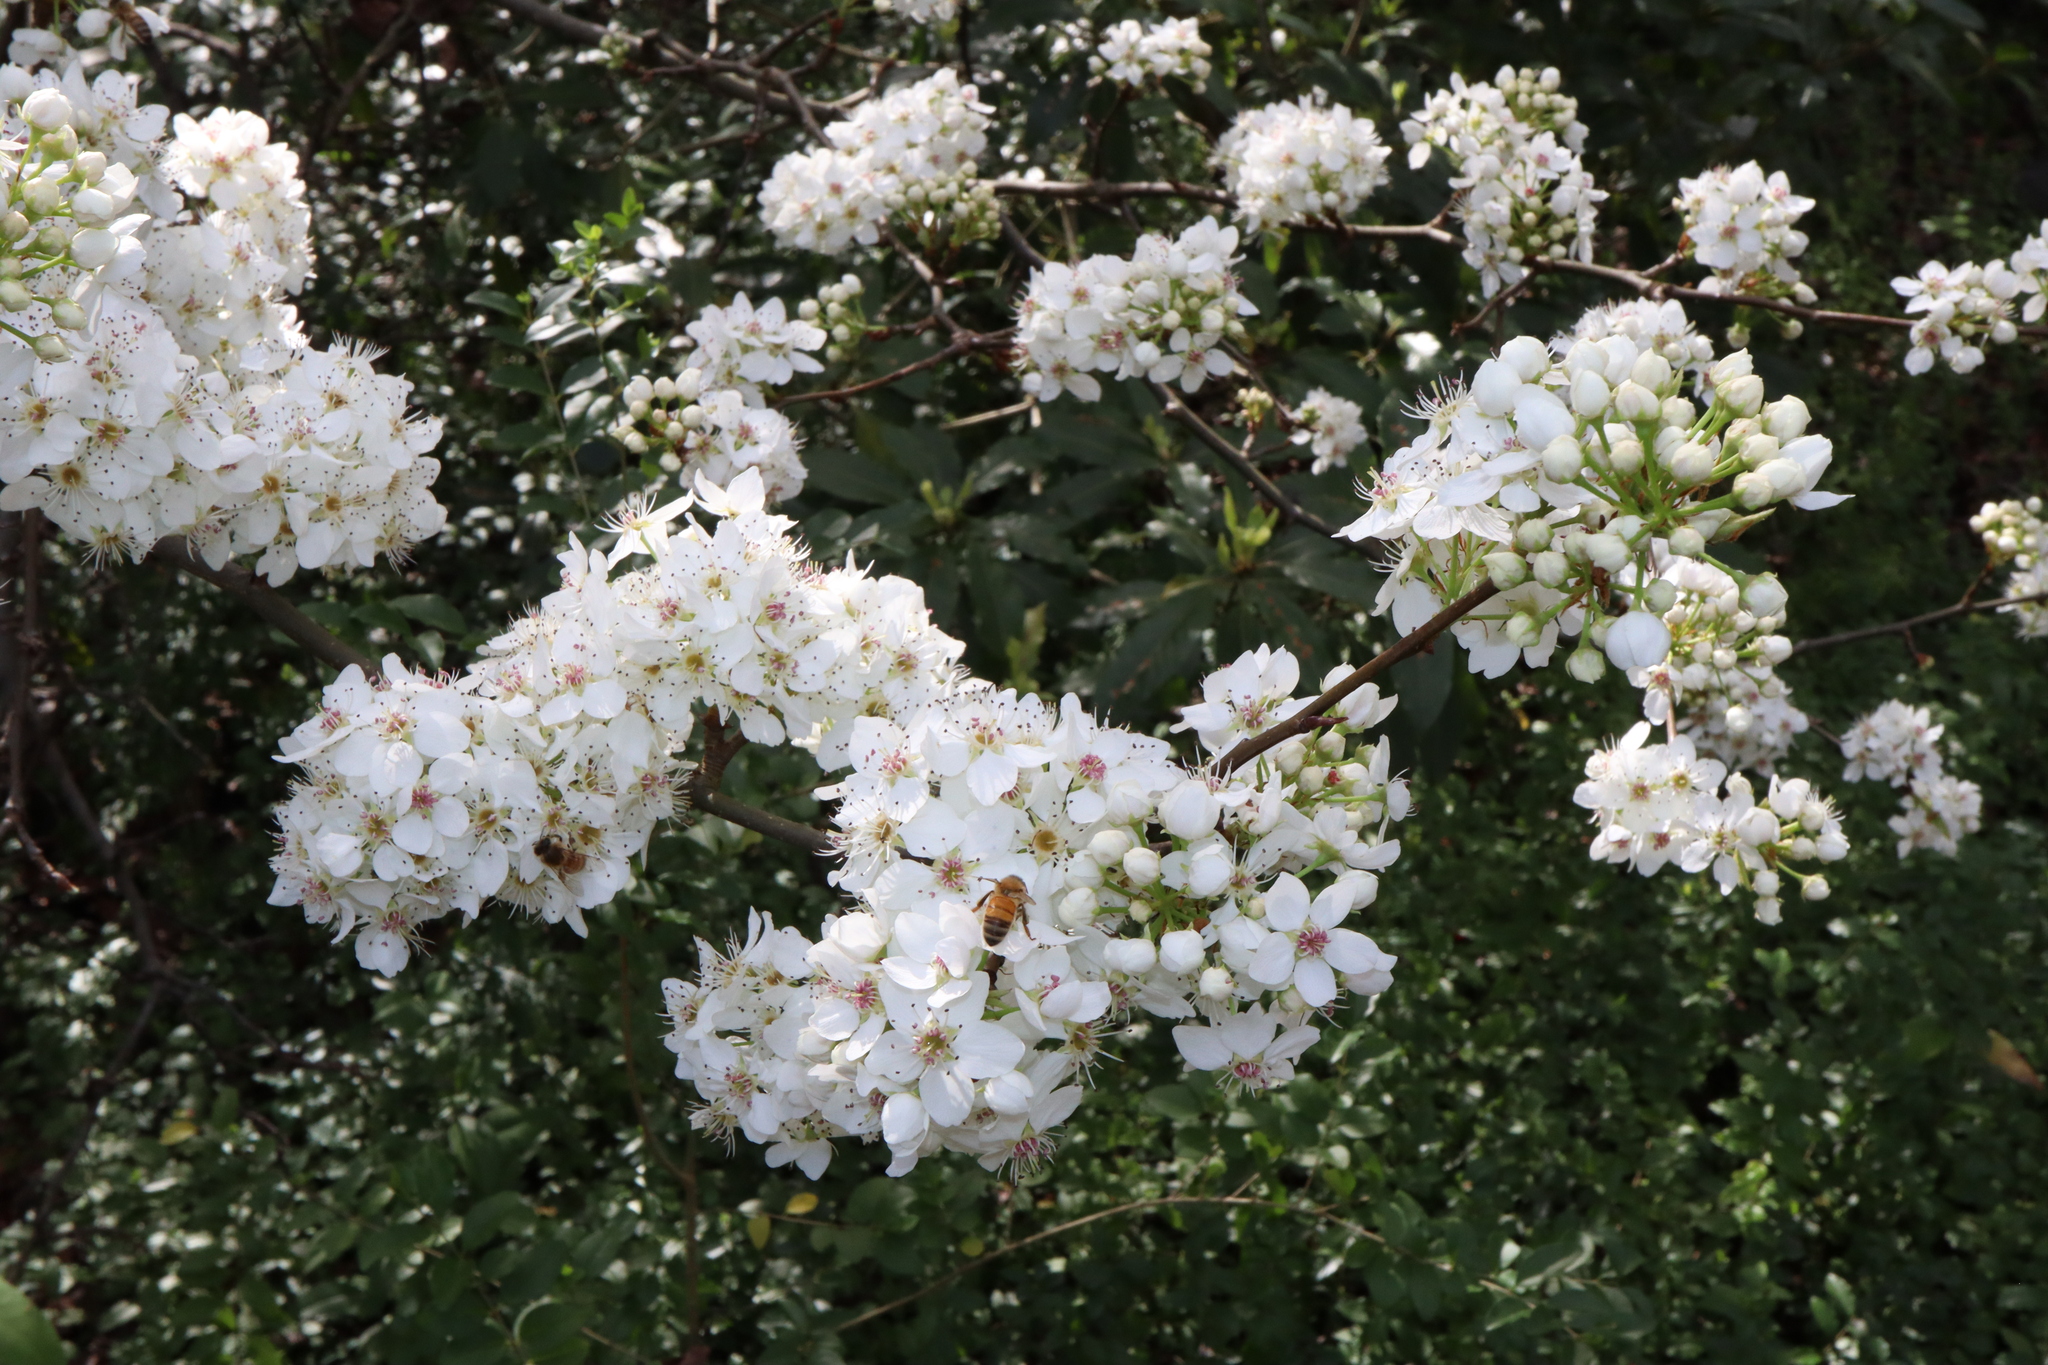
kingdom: Animalia
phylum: Arthropoda
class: Insecta
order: Hymenoptera
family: Apidae
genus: Apis
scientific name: Apis mellifera
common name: Honey bee
